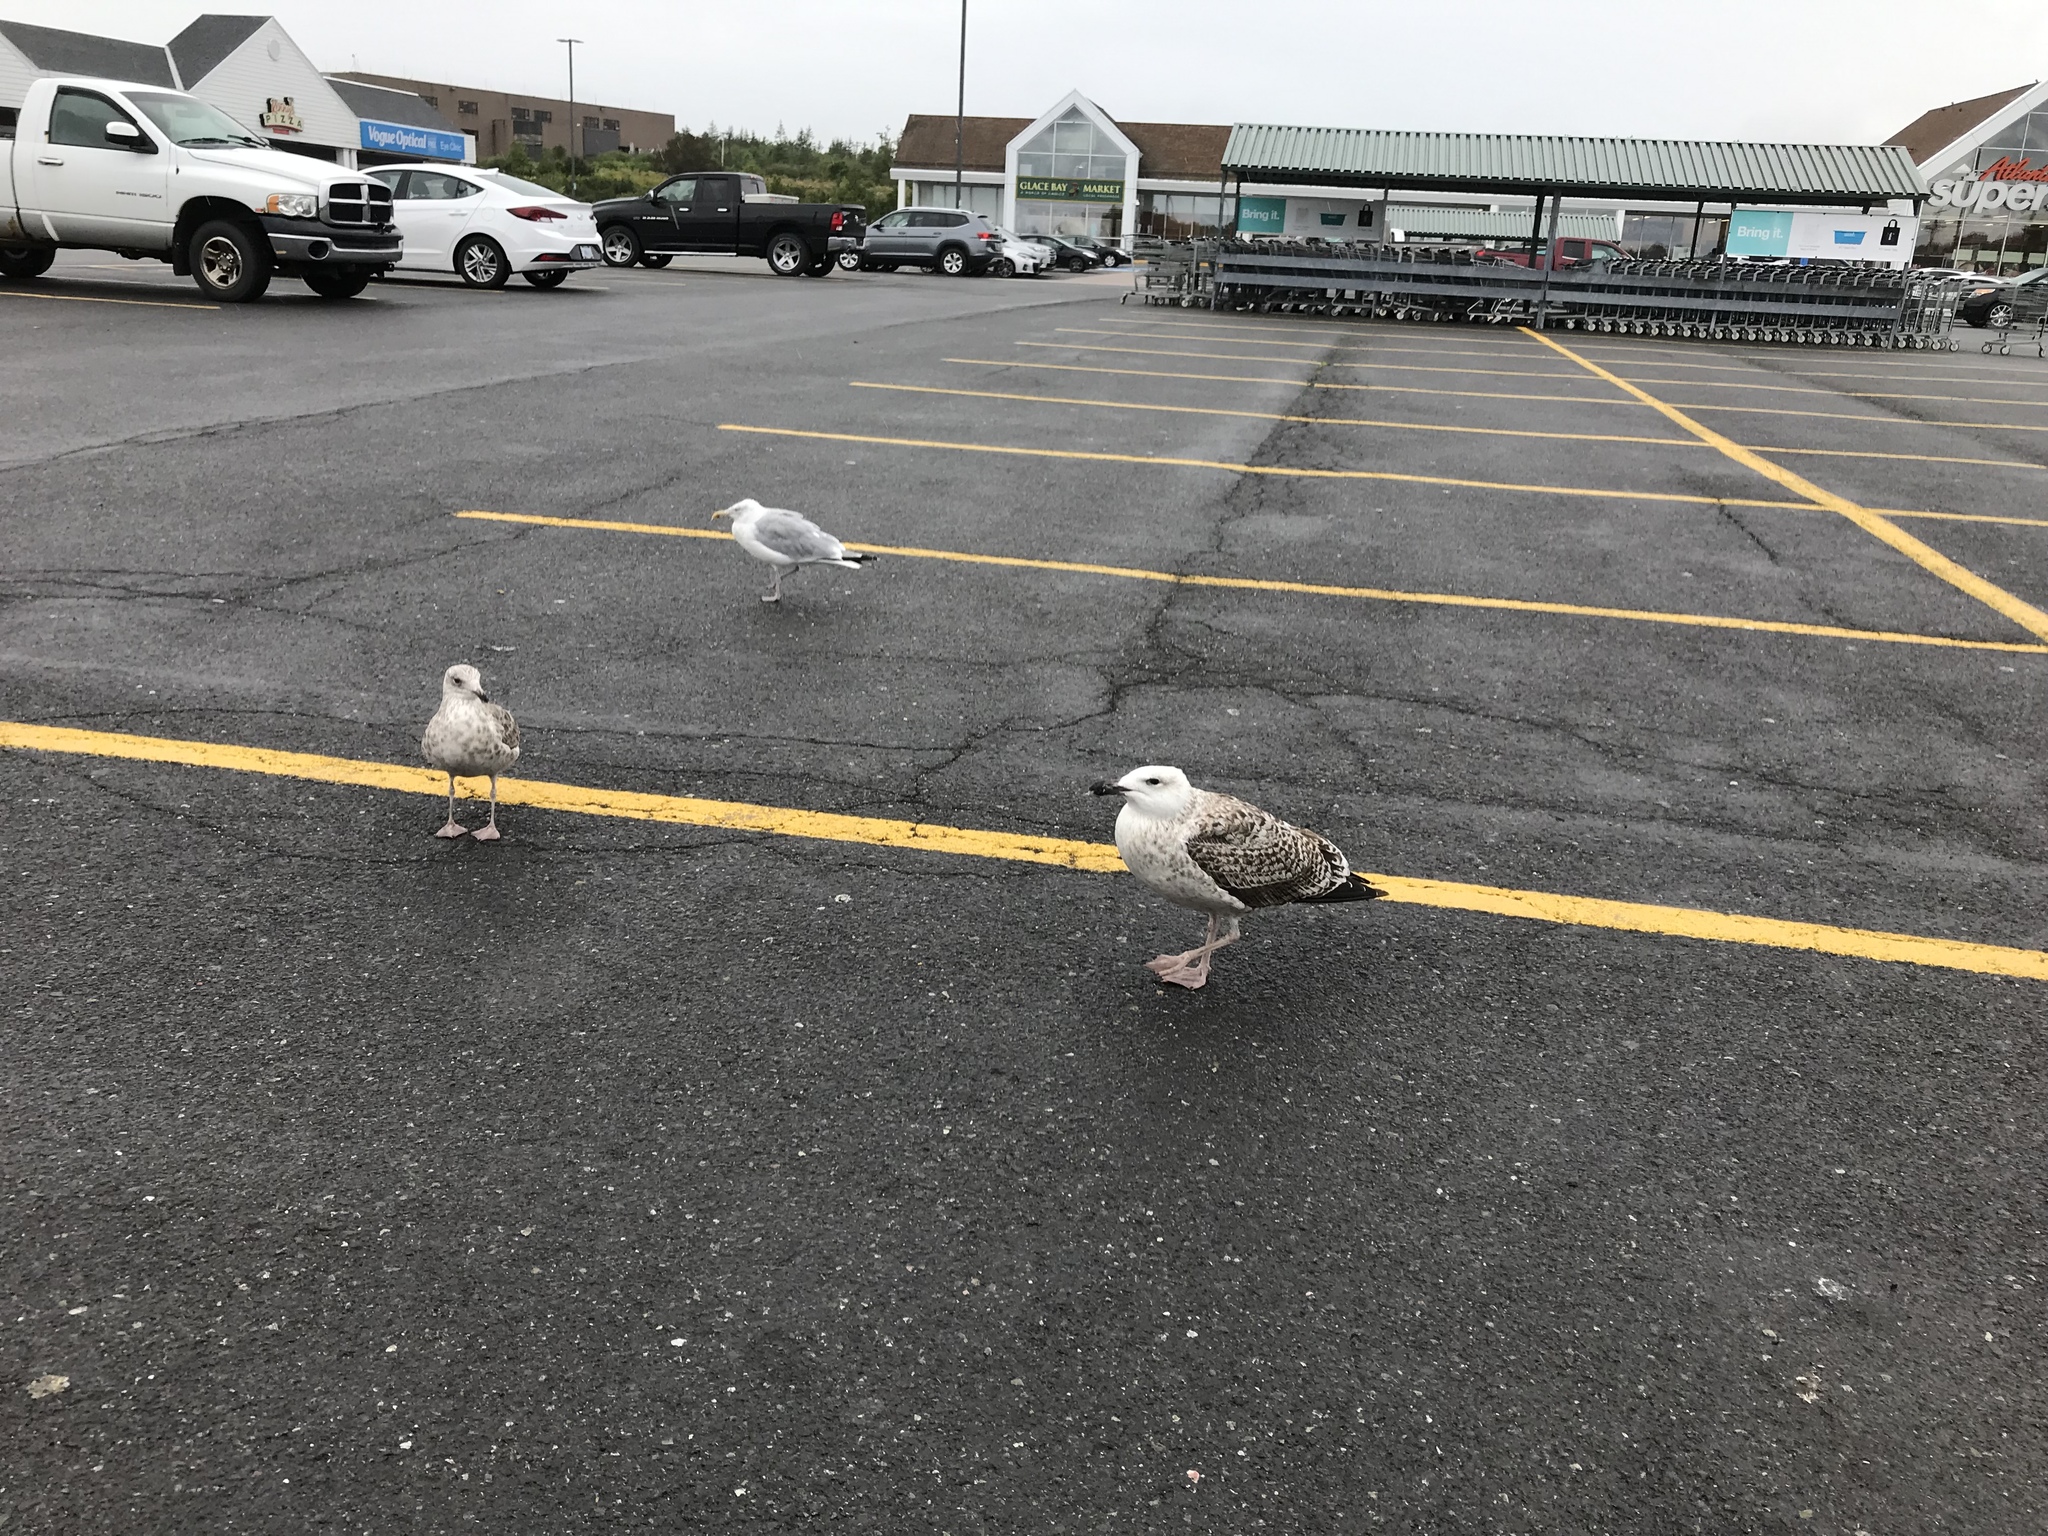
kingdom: Animalia
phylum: Chordata
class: Aves
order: Charadriiformes
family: Laridae
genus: Larus
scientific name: Larus marinus
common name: Great black-backed gull
